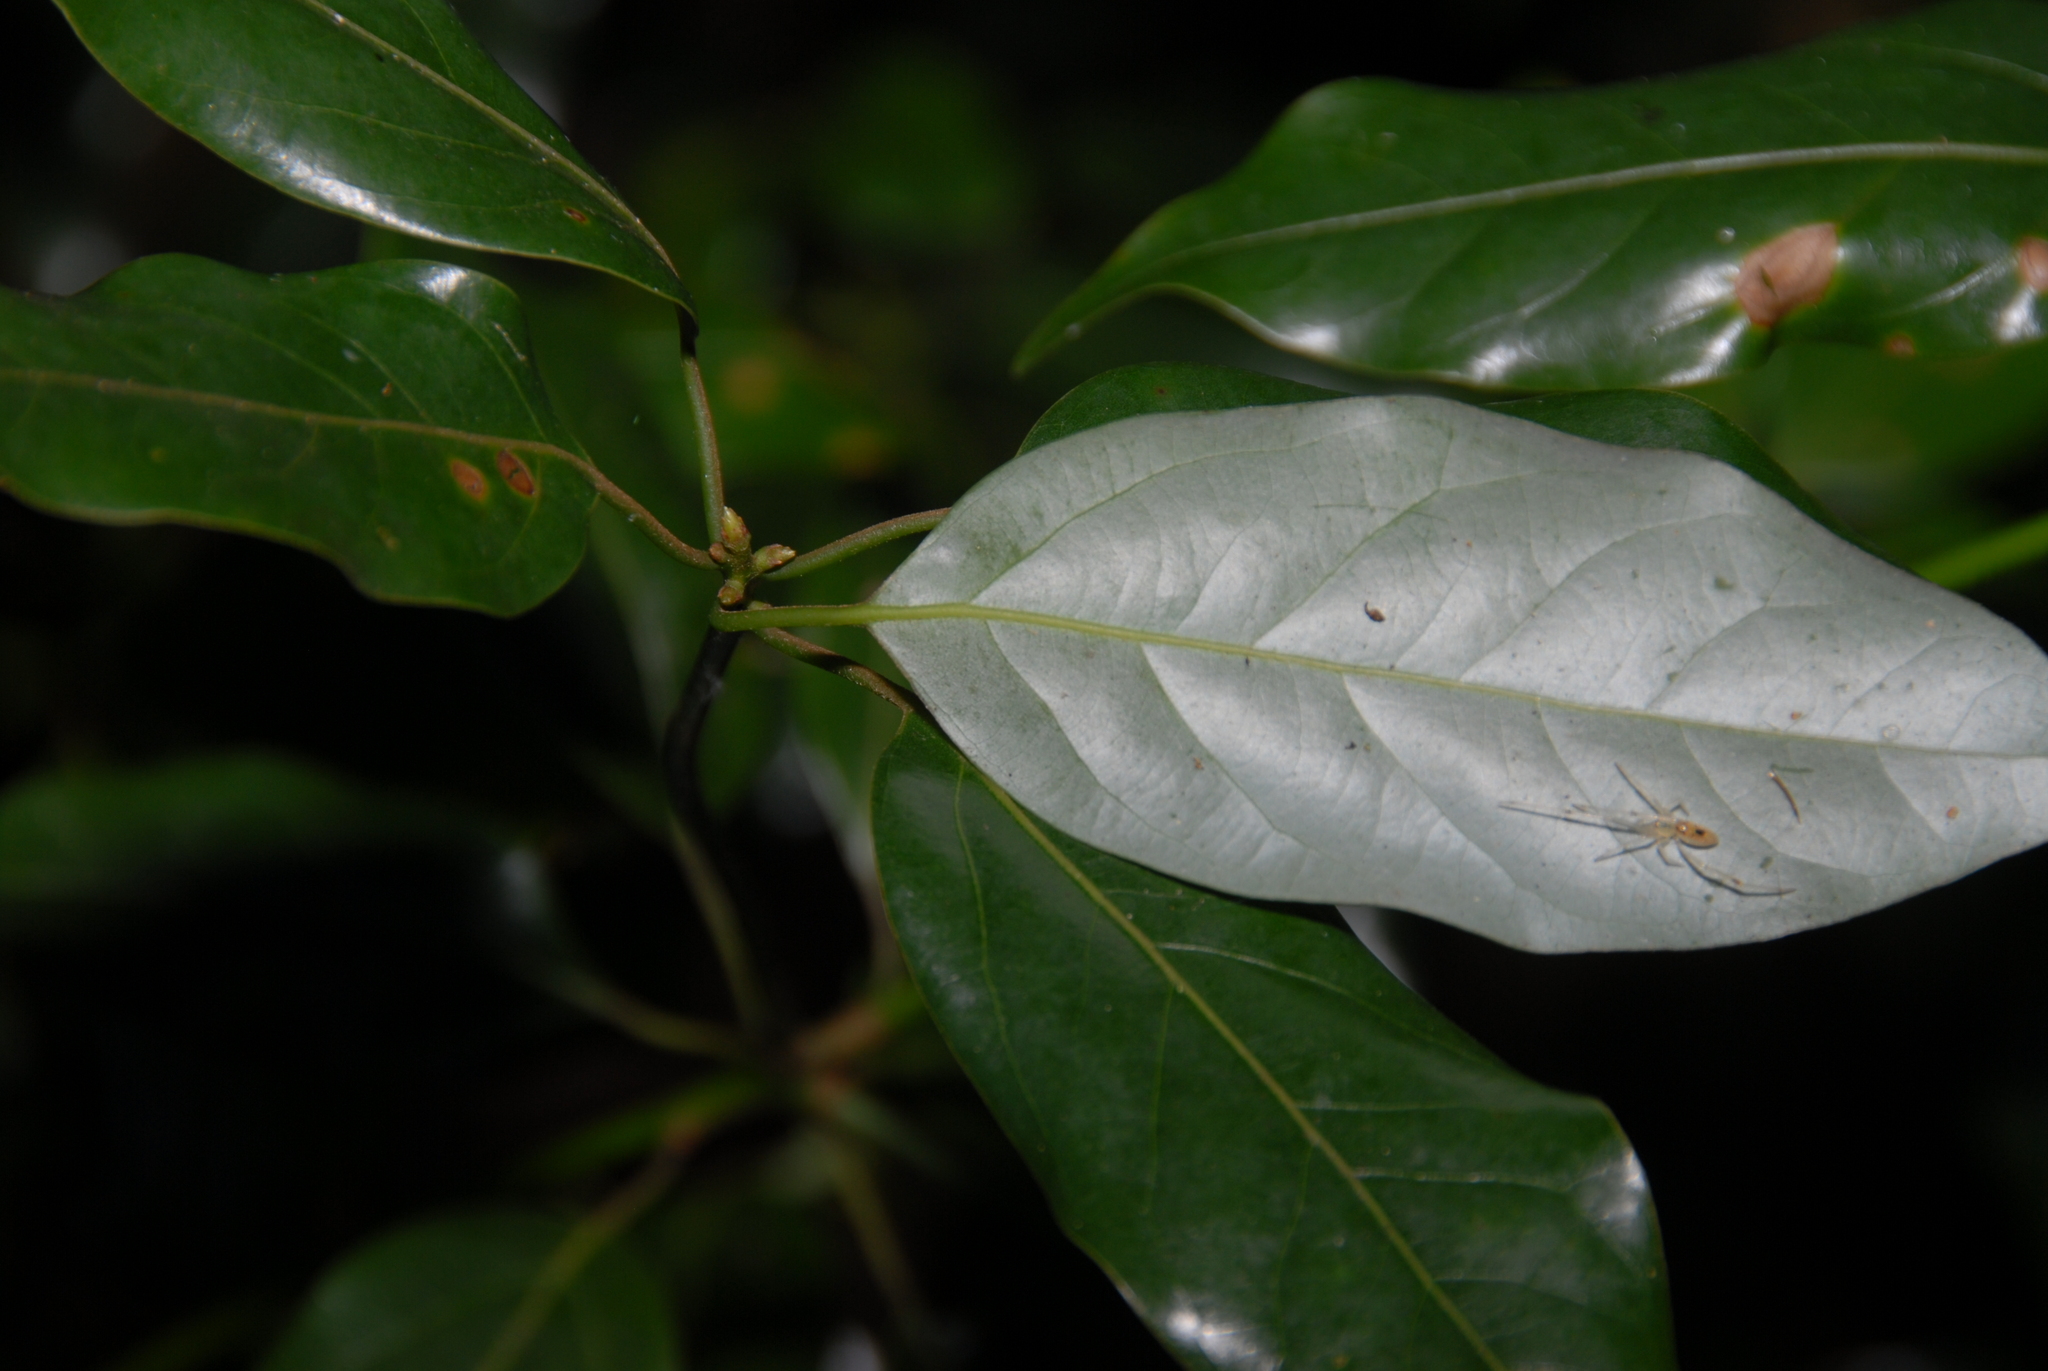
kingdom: Plantae
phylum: Tracheophyta
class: Magnoliopsida
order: Laurales
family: Lauraceae
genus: Neolitsea
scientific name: Neolitsea acuminatissima
